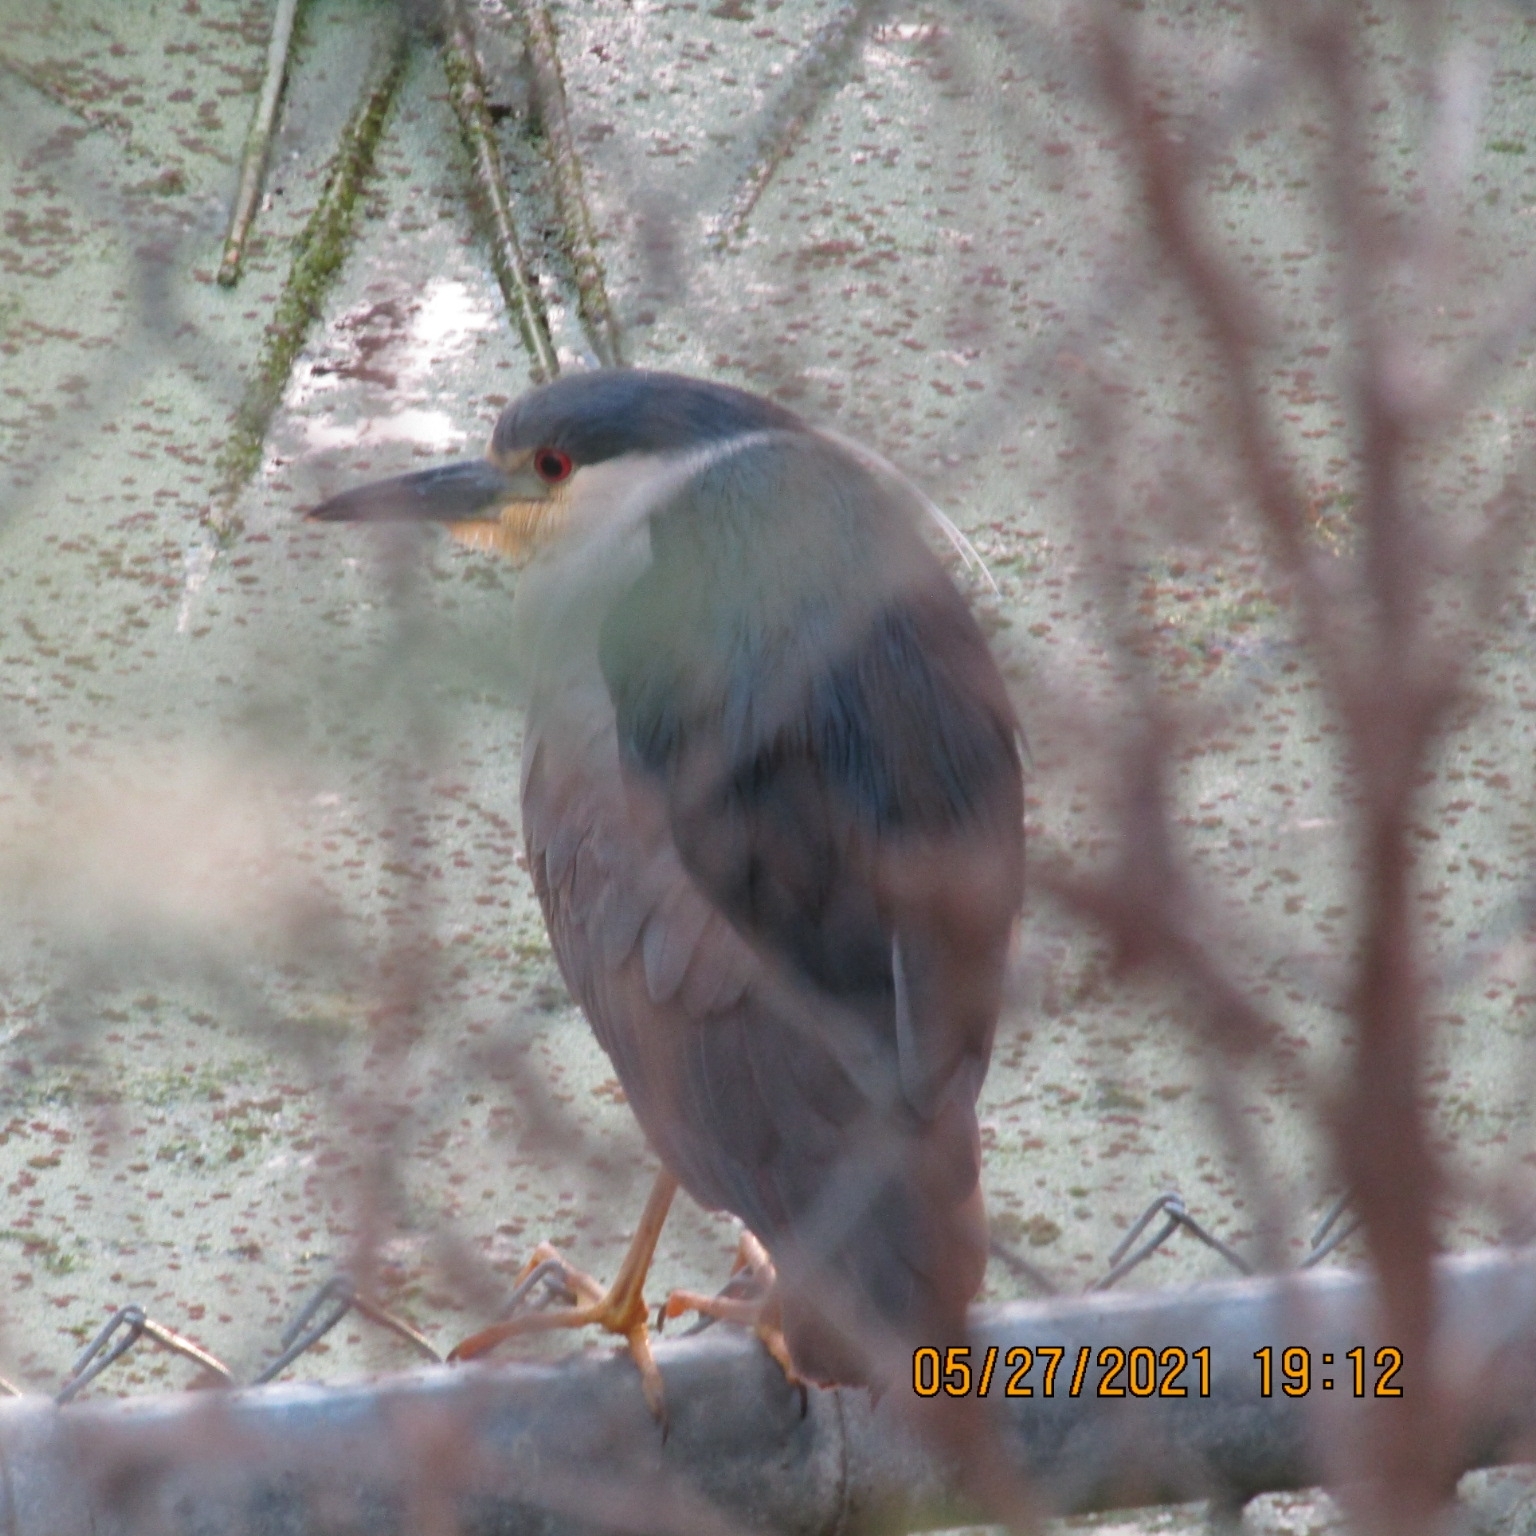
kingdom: Animalia
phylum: Chordata
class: Aves
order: Pelecaniformes
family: Ardeidae
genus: Nycticorax
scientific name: Nycticorax nycticorax
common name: Black-crowned night heron
